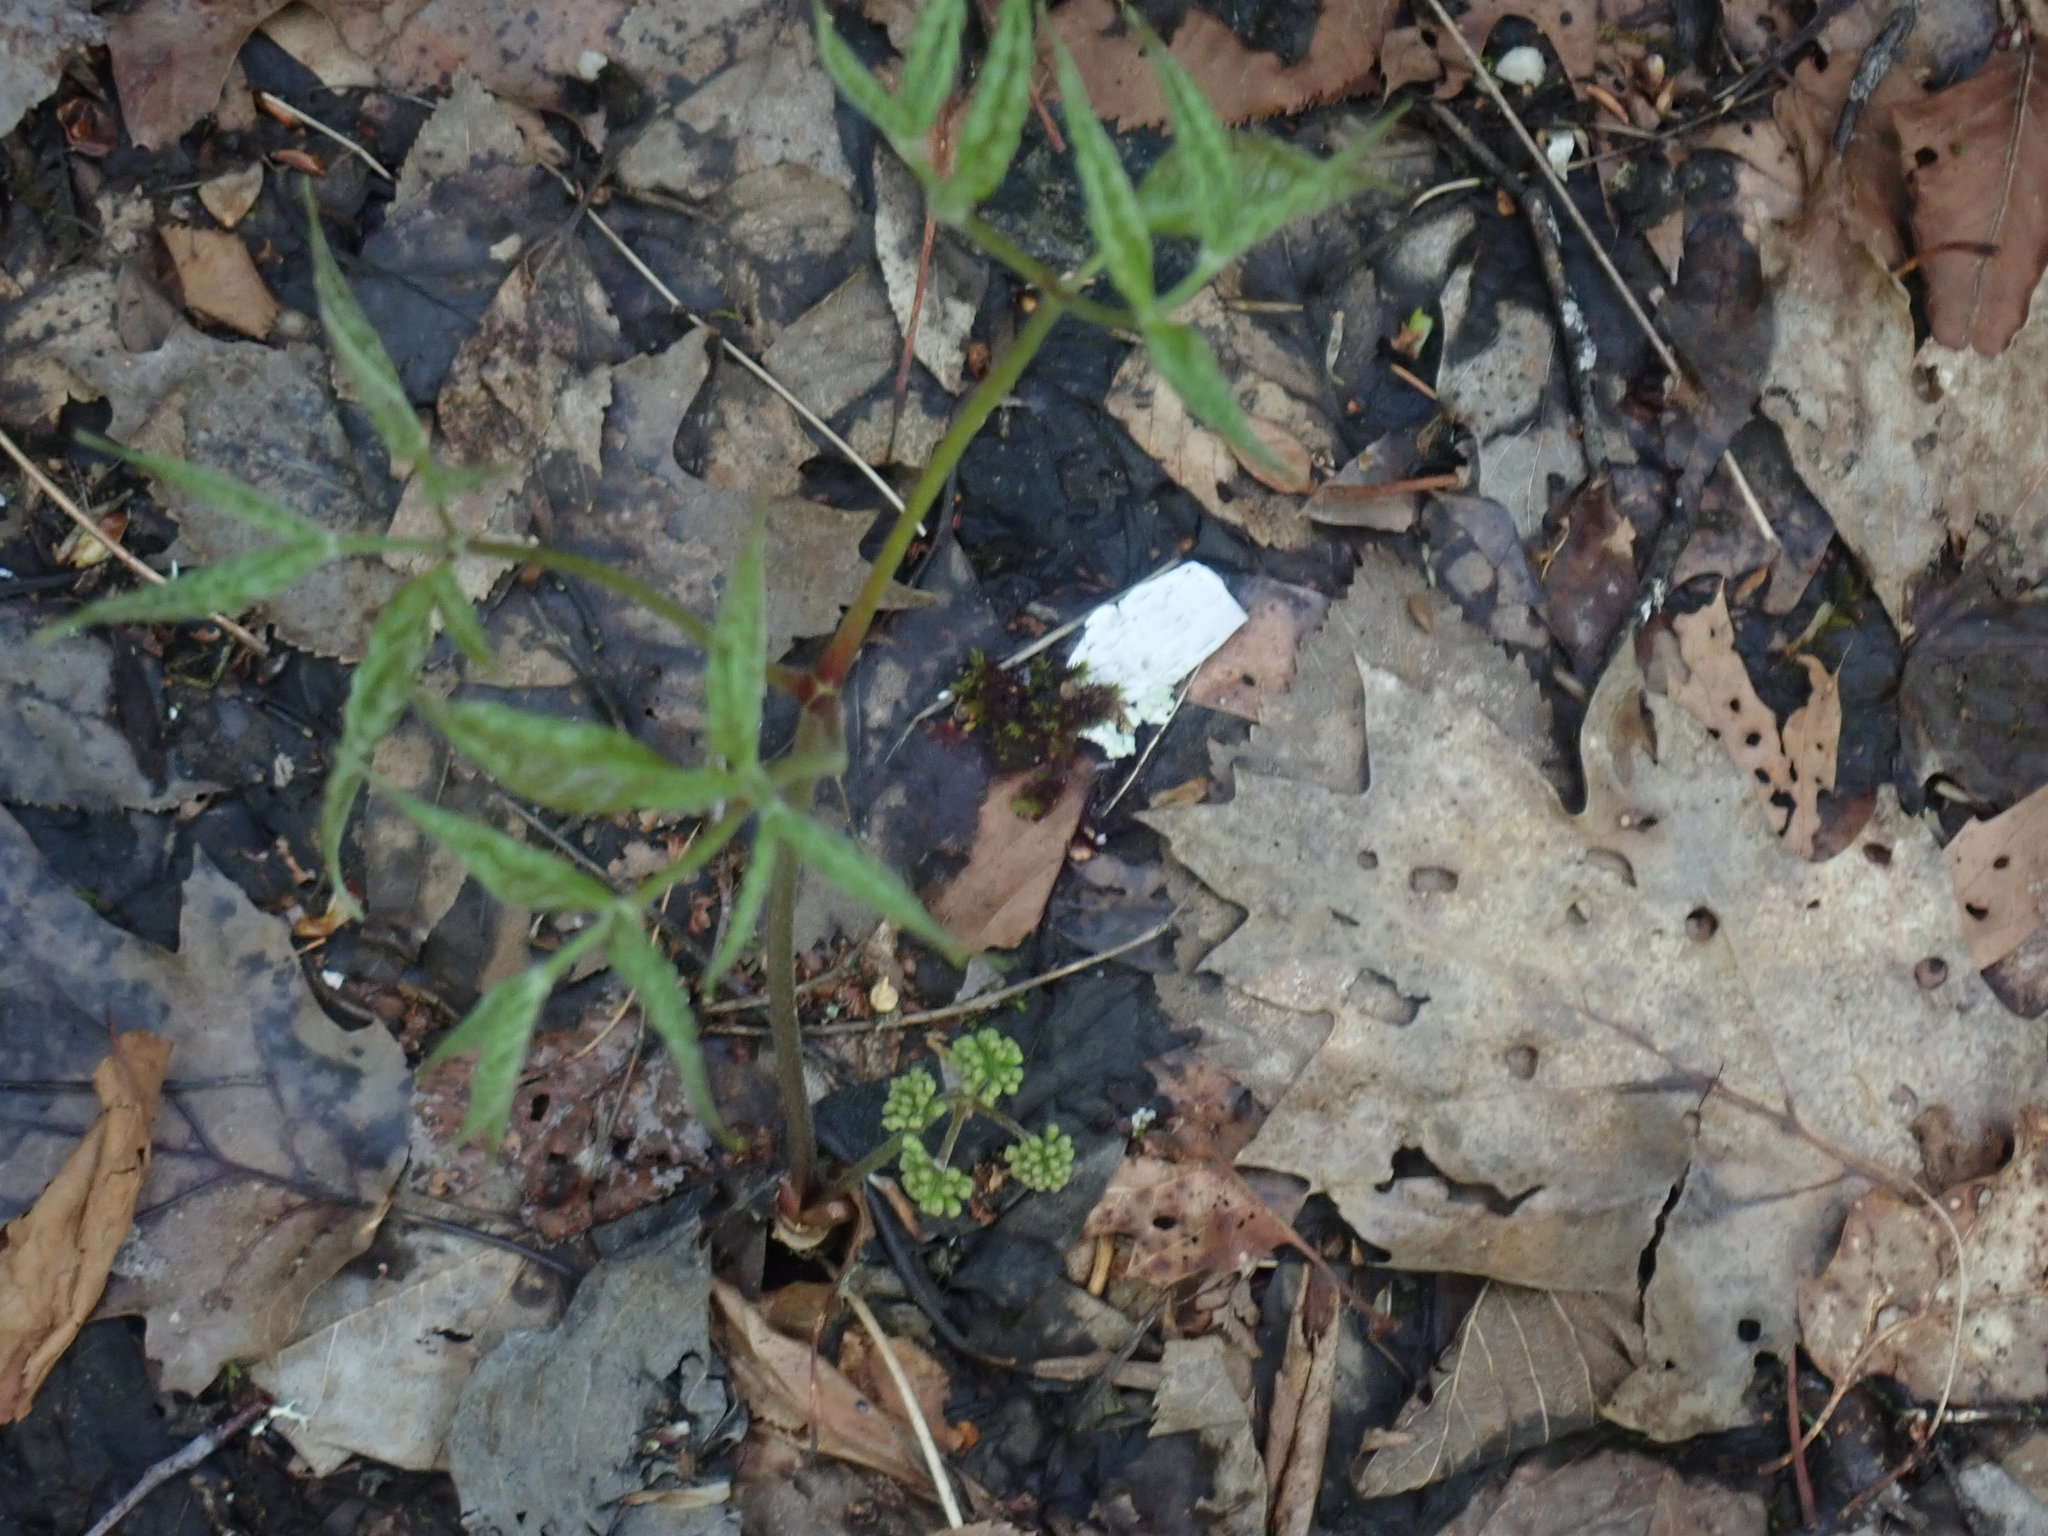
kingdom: Plantae
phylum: Tracheophyta
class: Magnoliopsida
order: Apiales
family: Araliaceae
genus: Aralia
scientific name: Aralia nudicaulis
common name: Wild sarsaparilla
